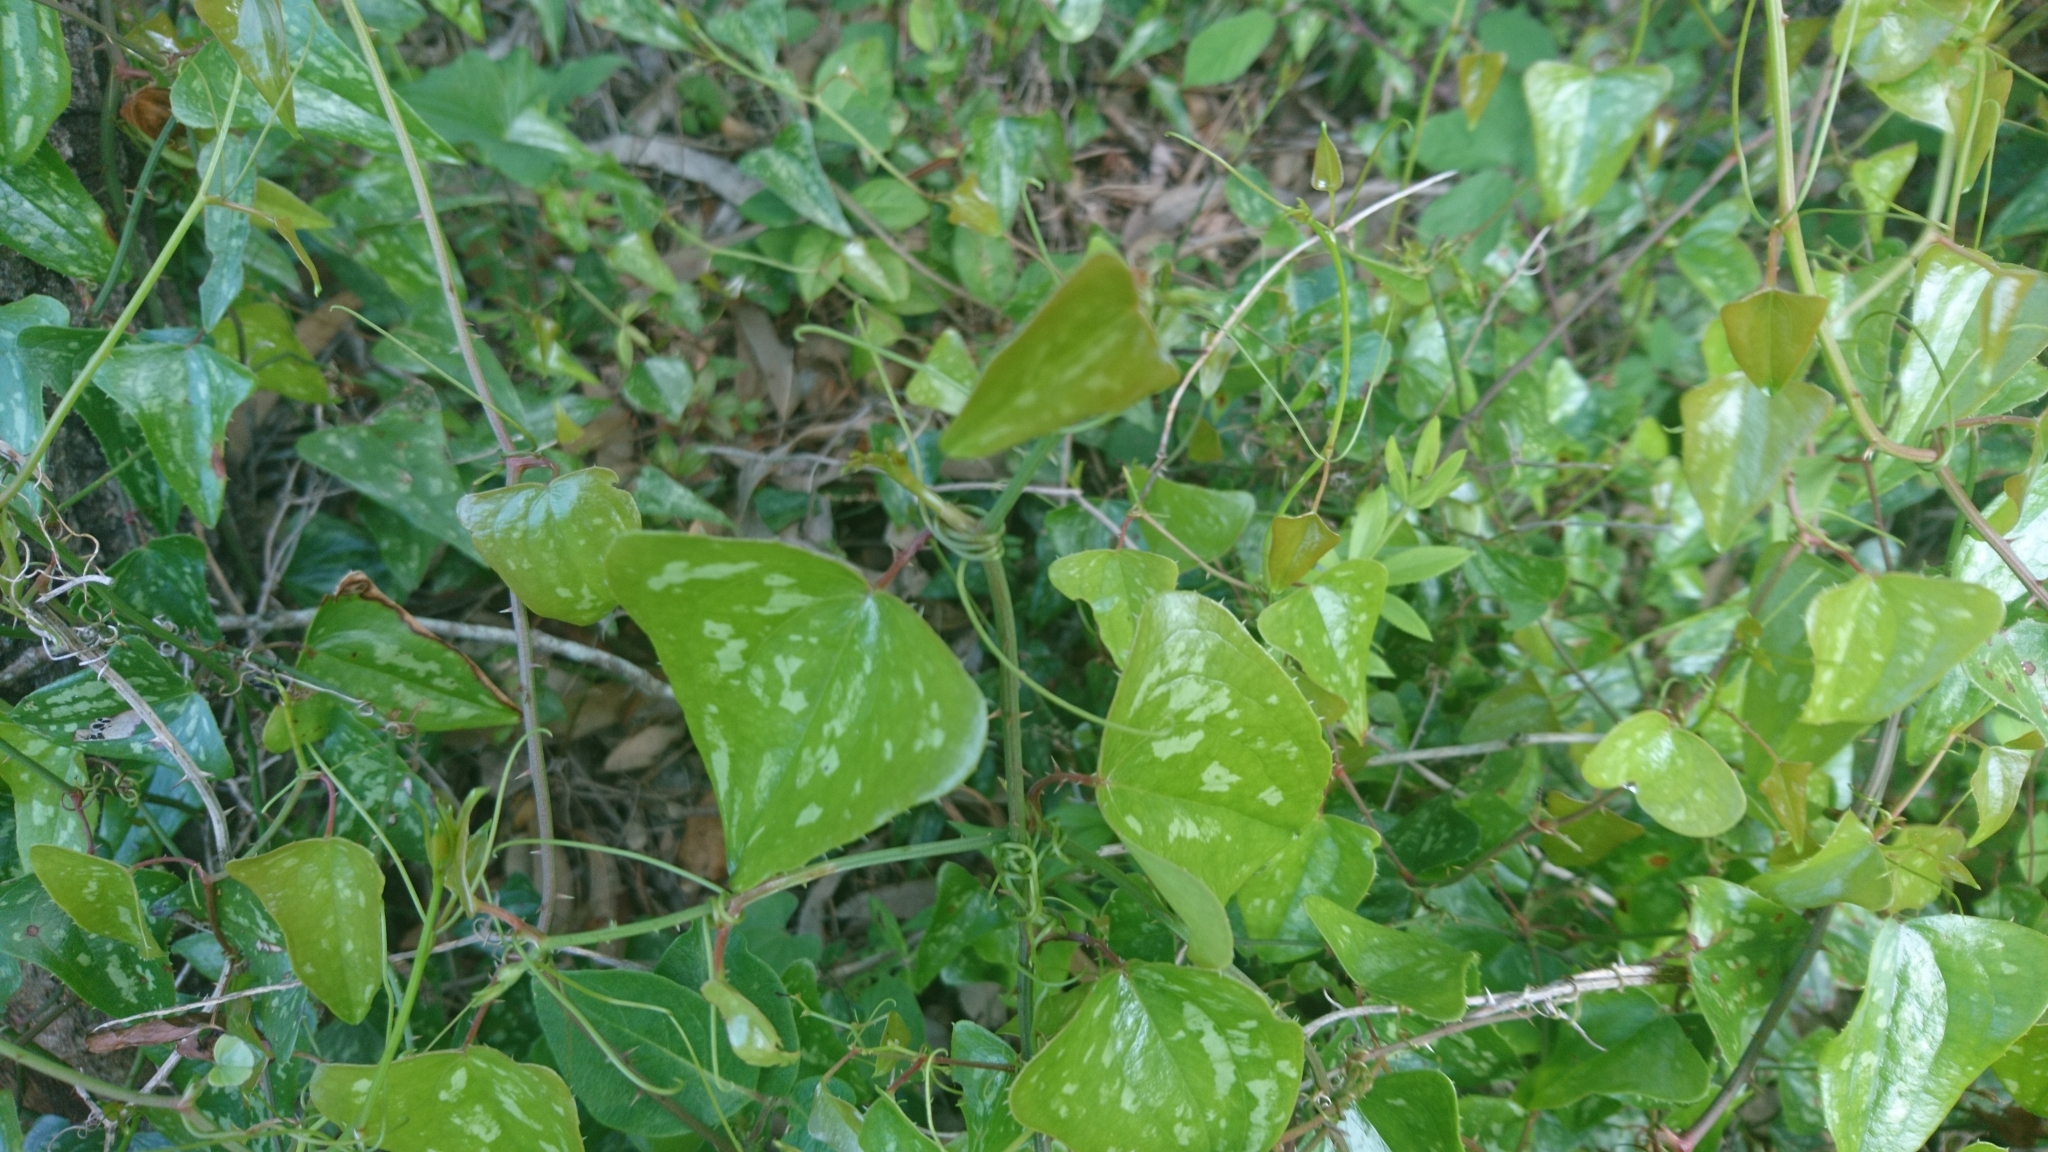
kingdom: Plantae
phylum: Tracheophyta
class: Liliopsida
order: Liliales
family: Smilacaceae
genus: Smilax
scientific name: Smilax aspera
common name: Common smilax
